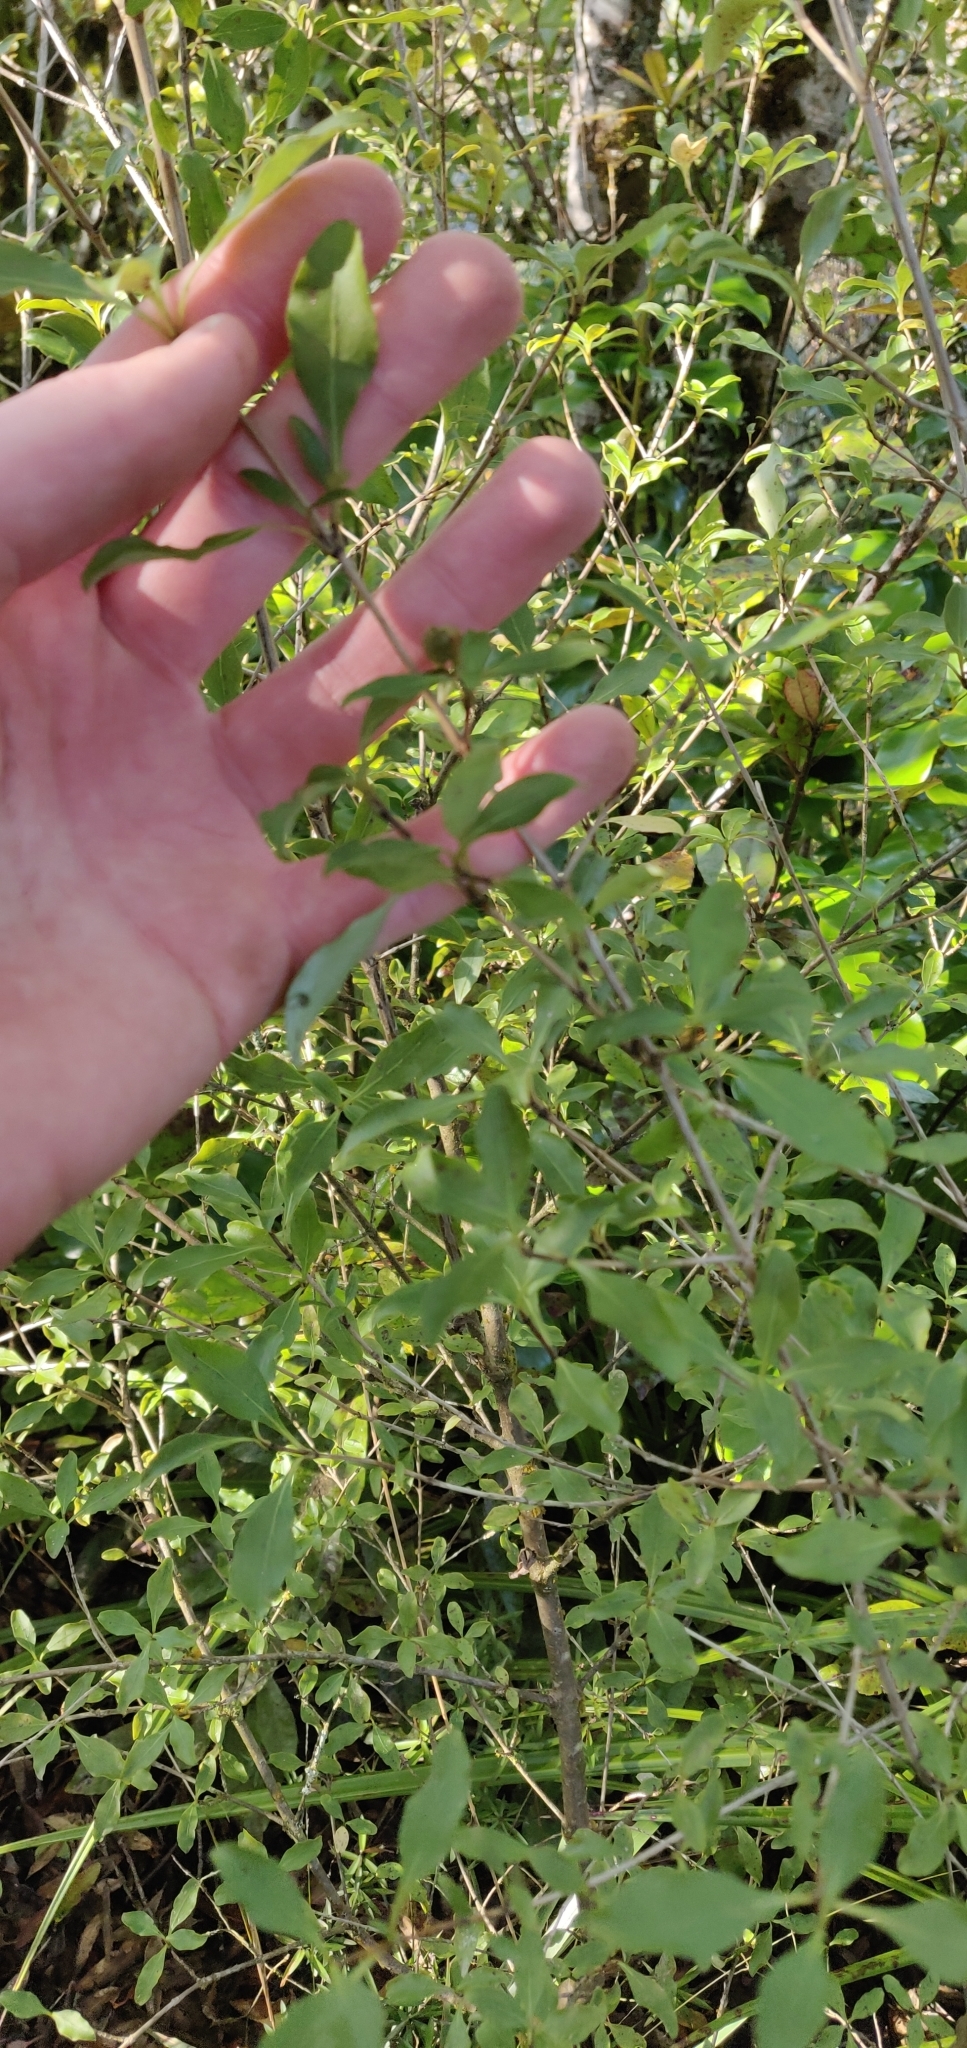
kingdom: Plantae
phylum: Tracheophyta
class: Magnoliopsida
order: Gentianales
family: Rubiaceae
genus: Coprosma
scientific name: Coprosma foetidissima
